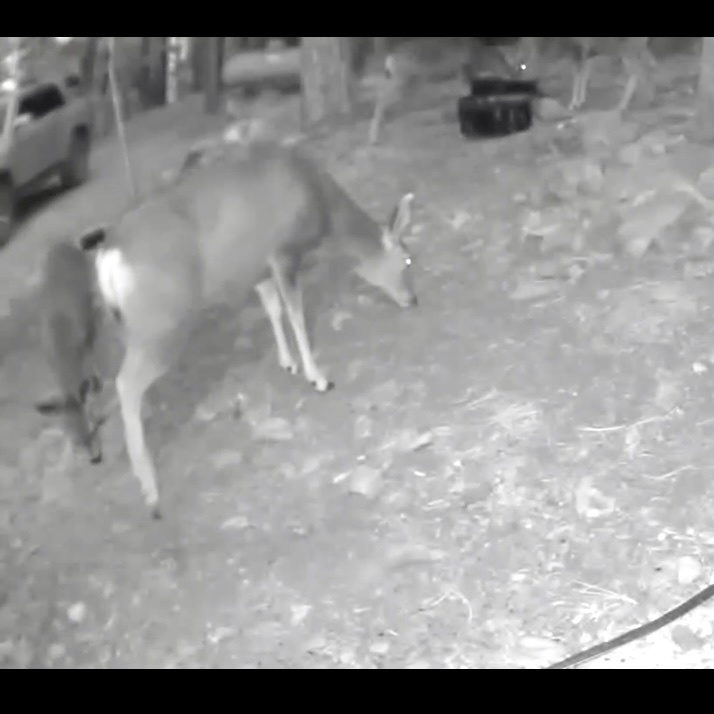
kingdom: Animalia
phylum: Chordata
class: Mammalia
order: Artiodactyla
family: Cervidae
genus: Odocoileus
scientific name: Odocoileus hemionus
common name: Mule deer
